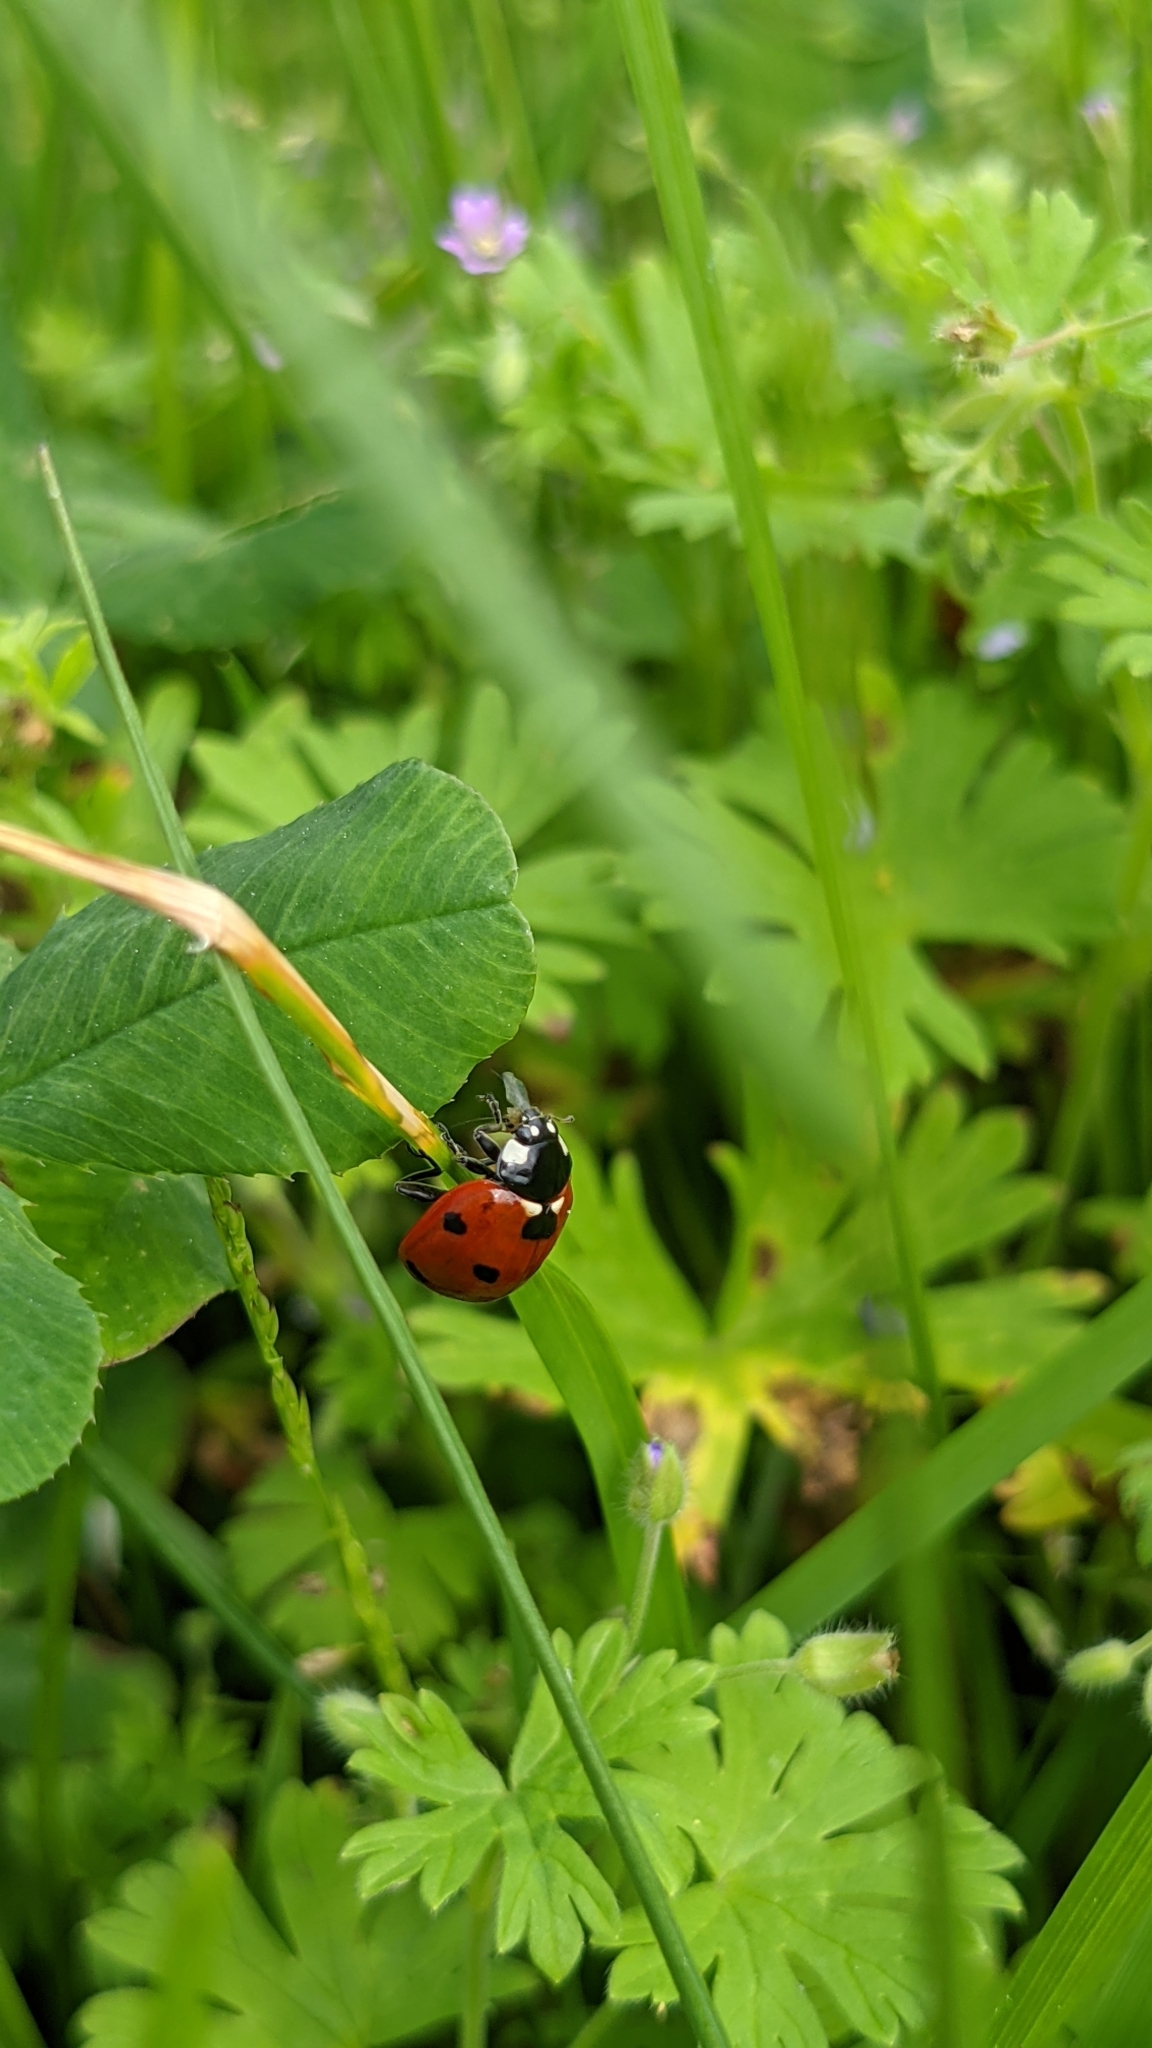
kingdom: Animalia
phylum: Arthropoda
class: Insecta
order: Coleoptera
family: Coccinellidae
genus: Coccinella
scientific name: Coccinella septempunctata
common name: Sevenspotted lady beetle
